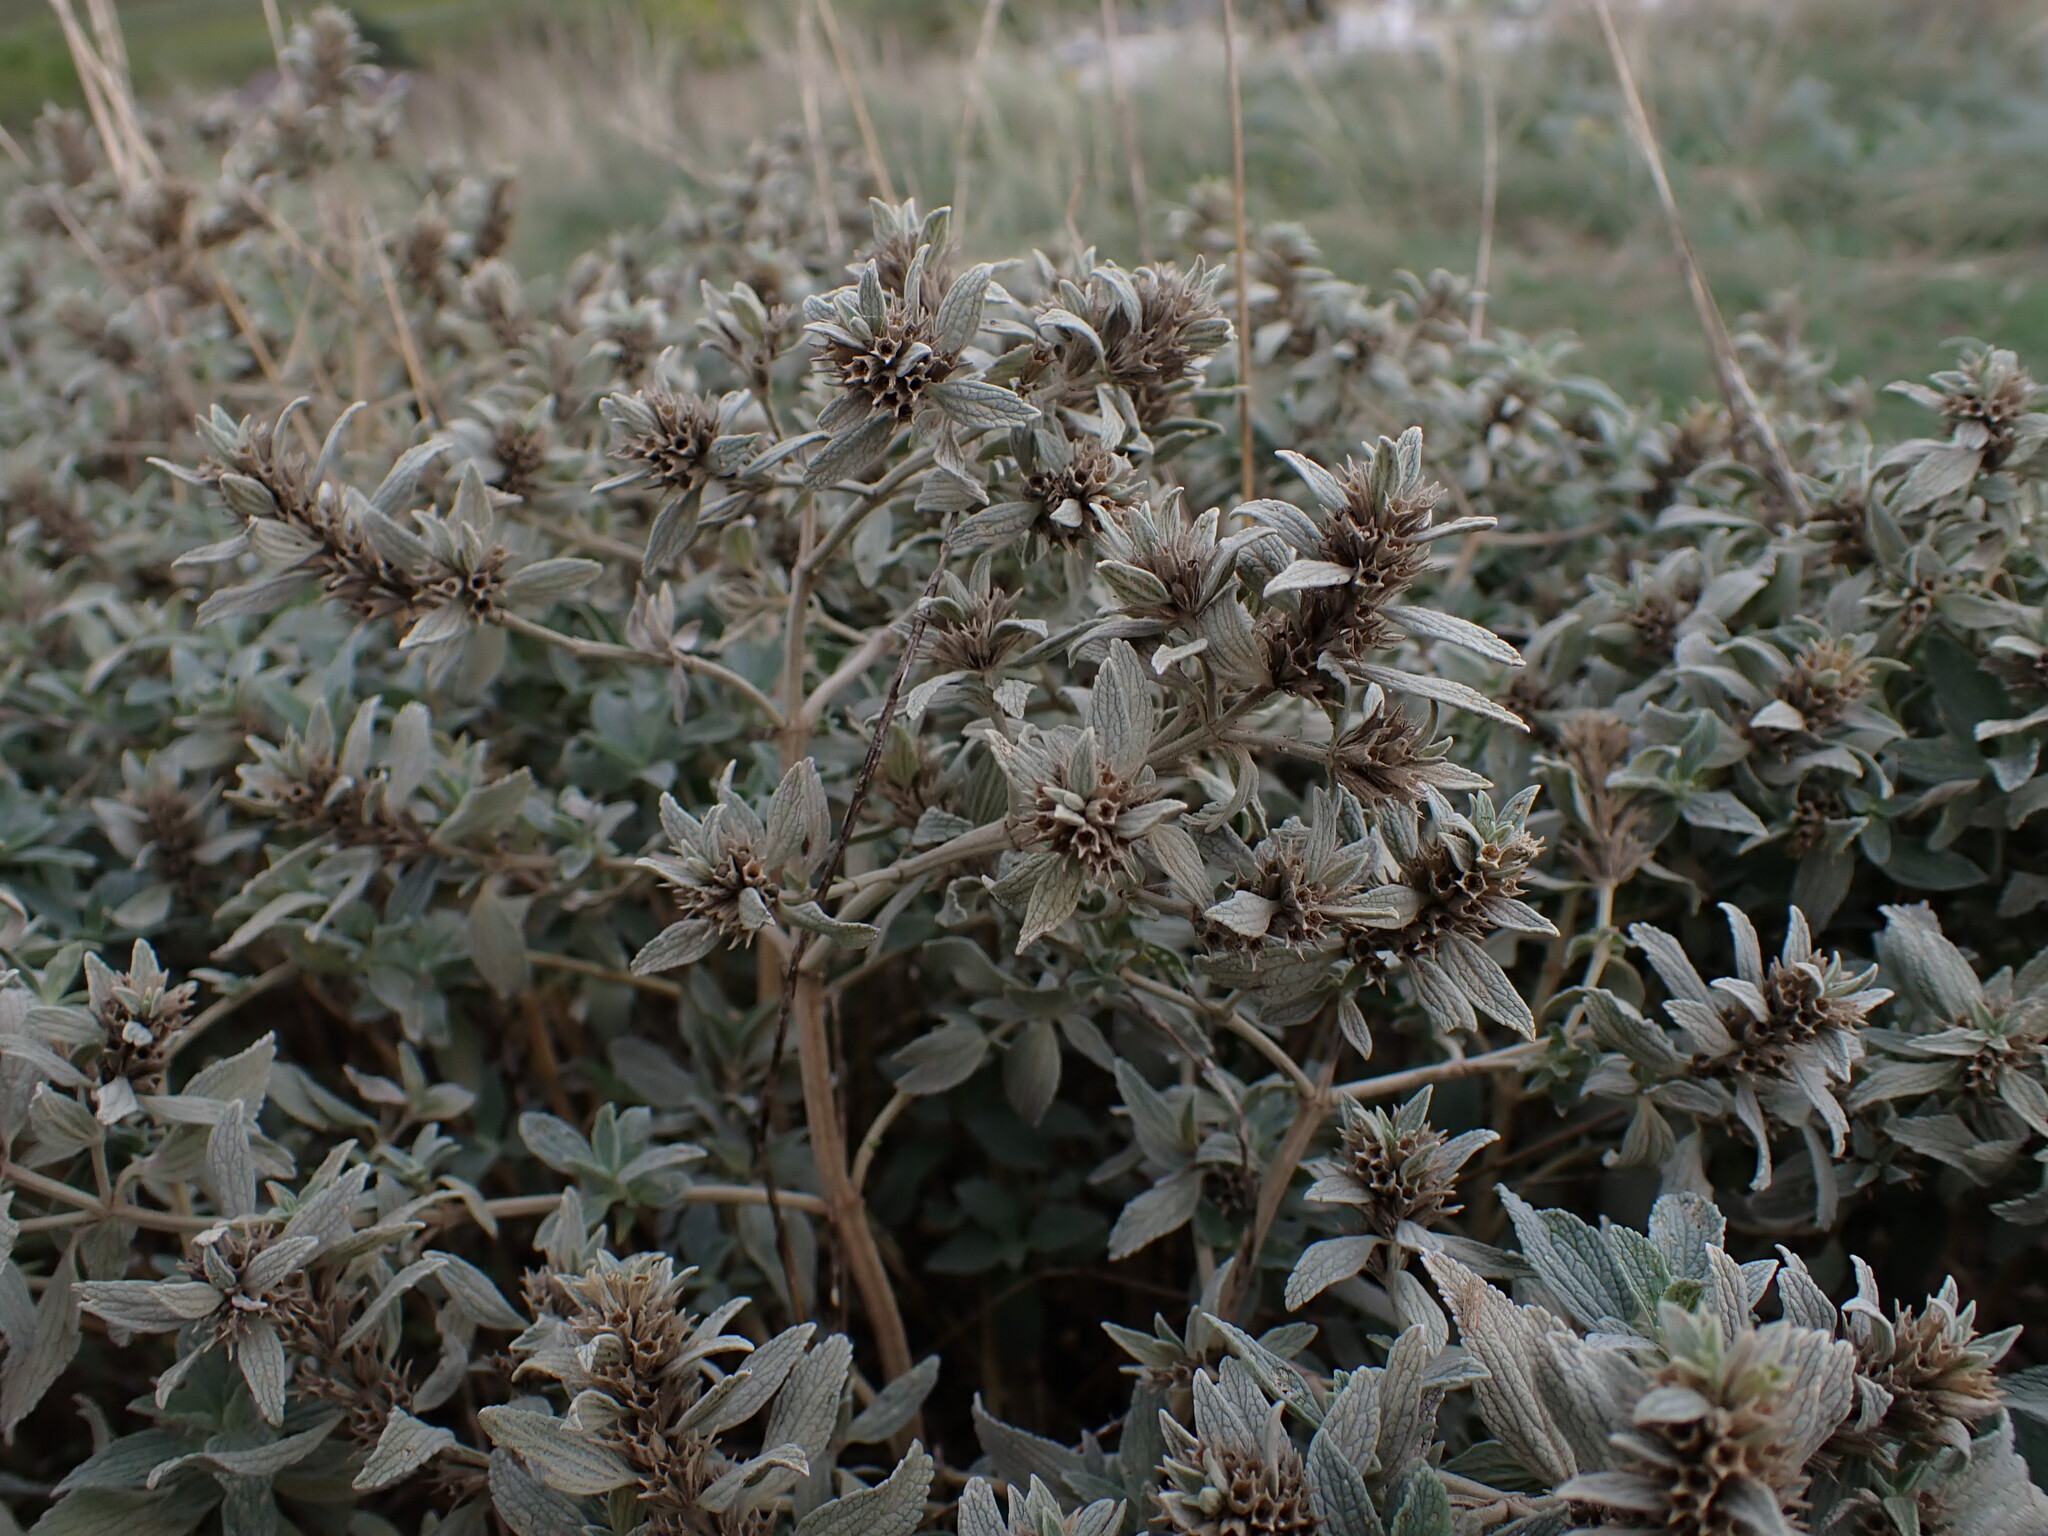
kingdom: Plantae
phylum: Tracheophyta
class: Magnoliopsida
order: Lamiales
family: Lamiaceae
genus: Marrubium
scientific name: Marrubium peregrinum
